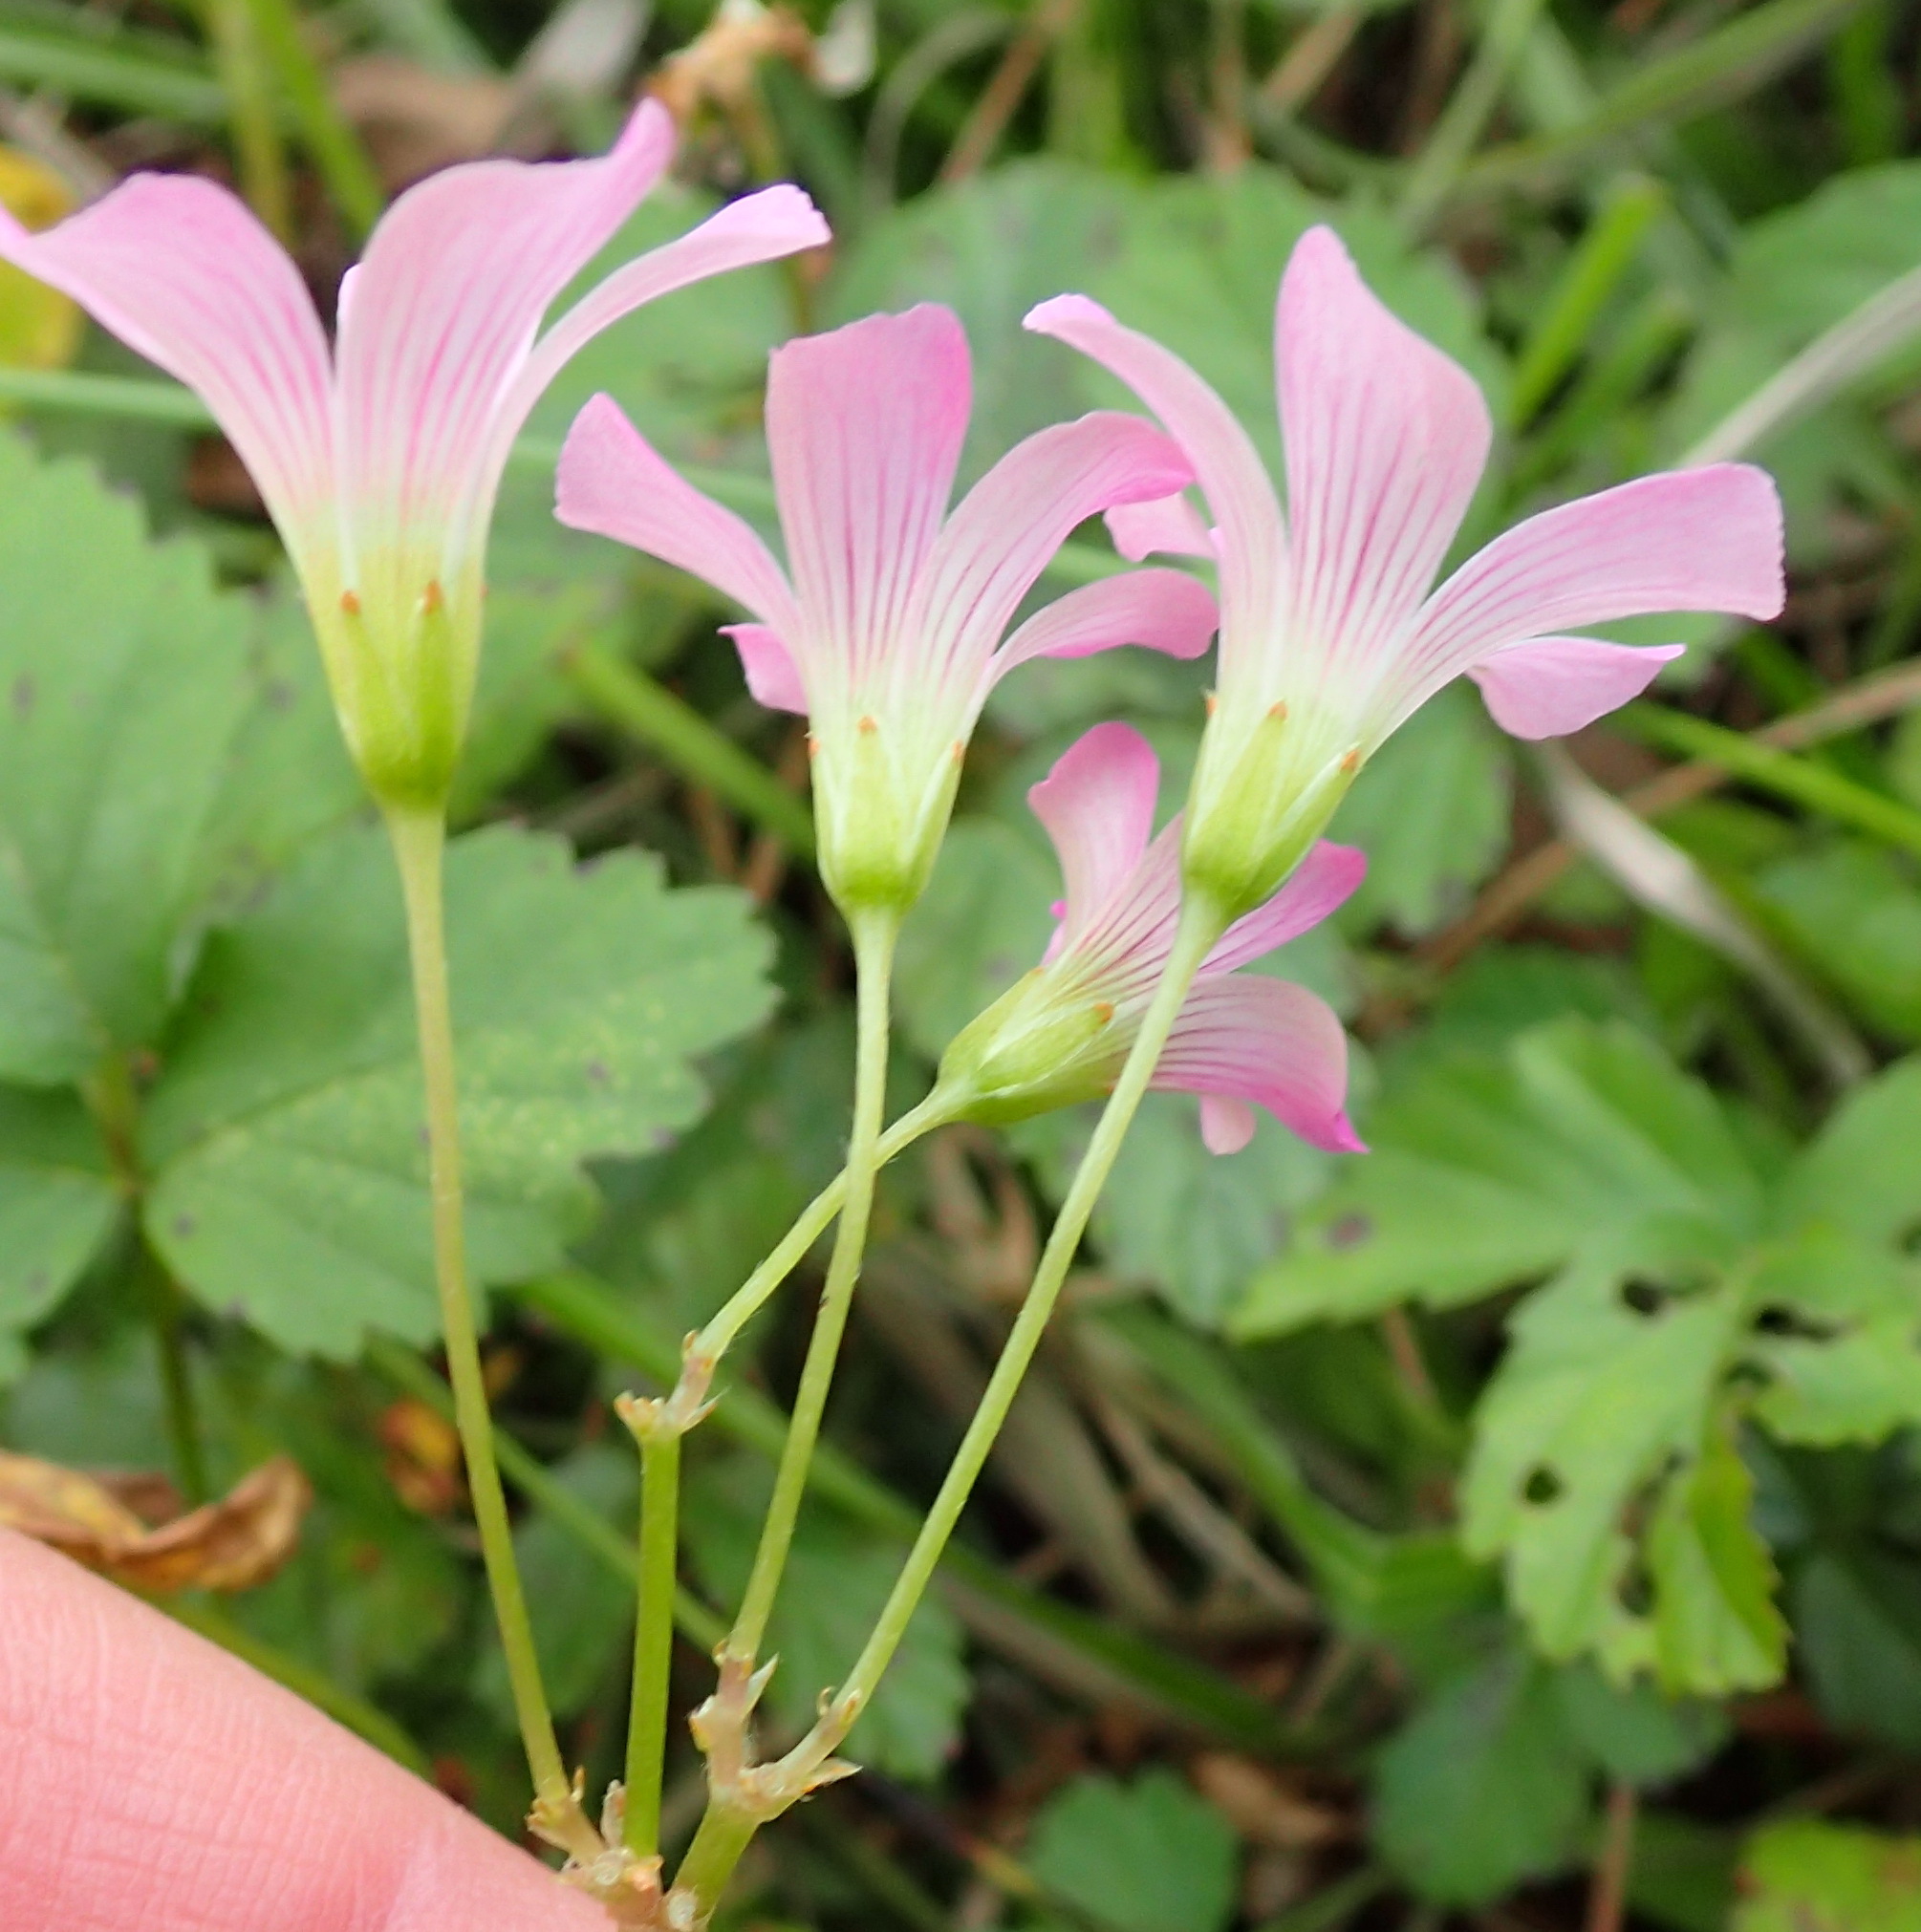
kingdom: Plantae
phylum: Tracheophyta
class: Magnoliopsida
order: Oxalidales
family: Oxalidaceae
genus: Oxalis
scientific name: Oxalis debilis
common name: Large-flowered pink-sorrel
